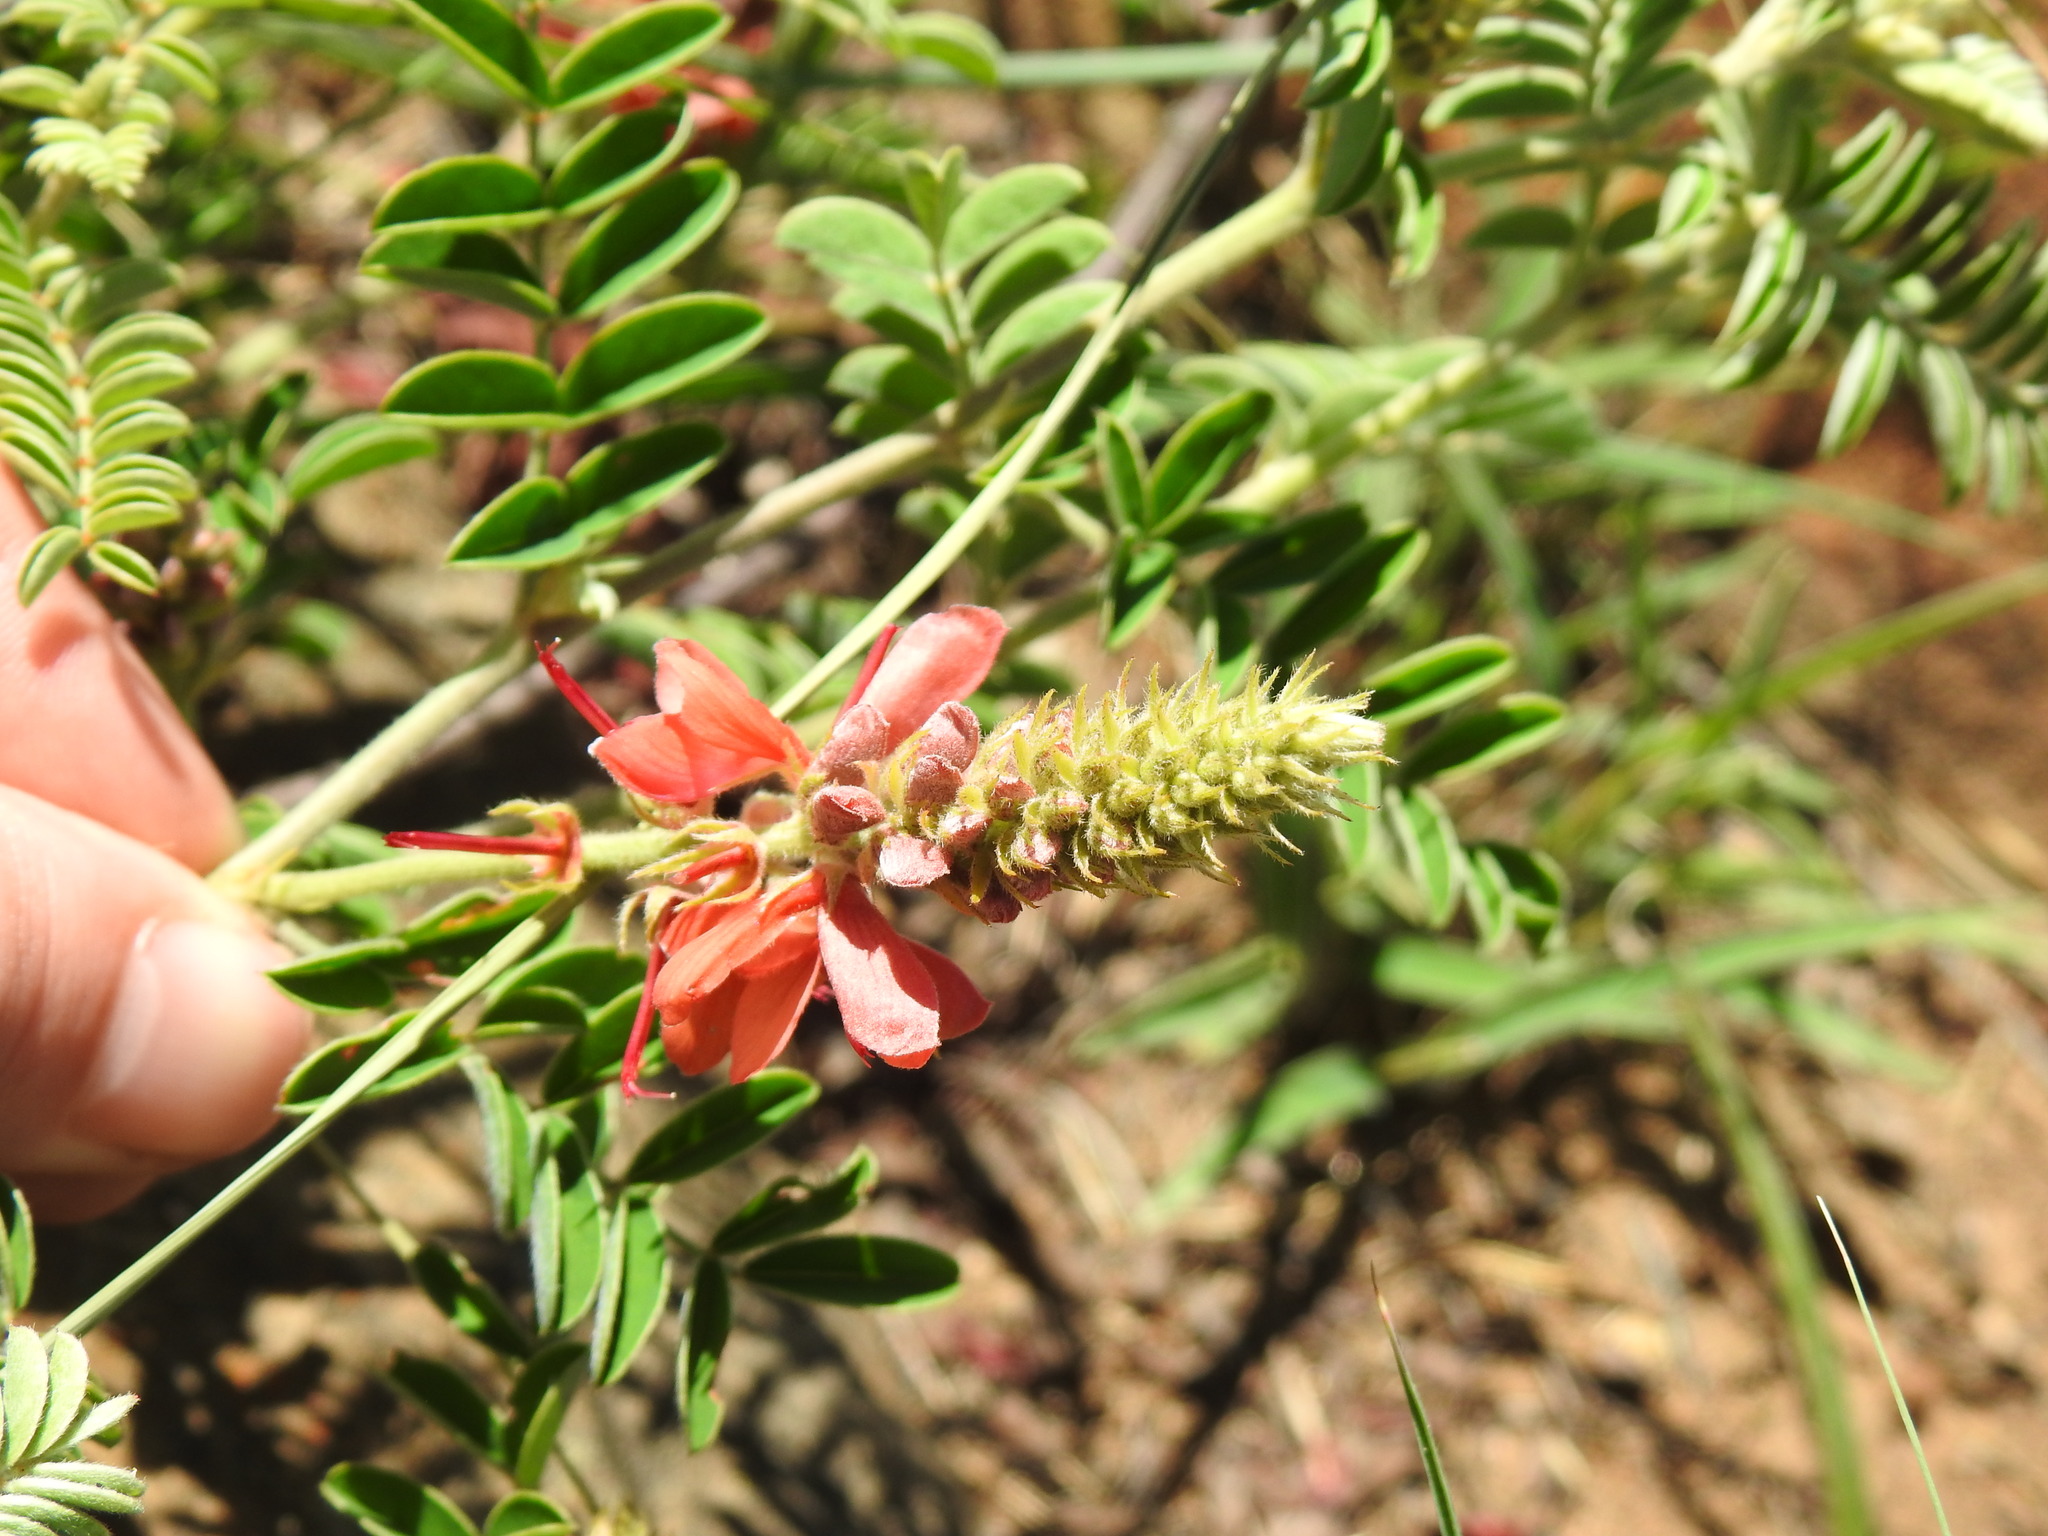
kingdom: Plantae
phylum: Tracheophyta
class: Magnoliopsida
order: Fabales
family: Fabaceae
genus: Indigofera
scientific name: Indigofera oxytropis
